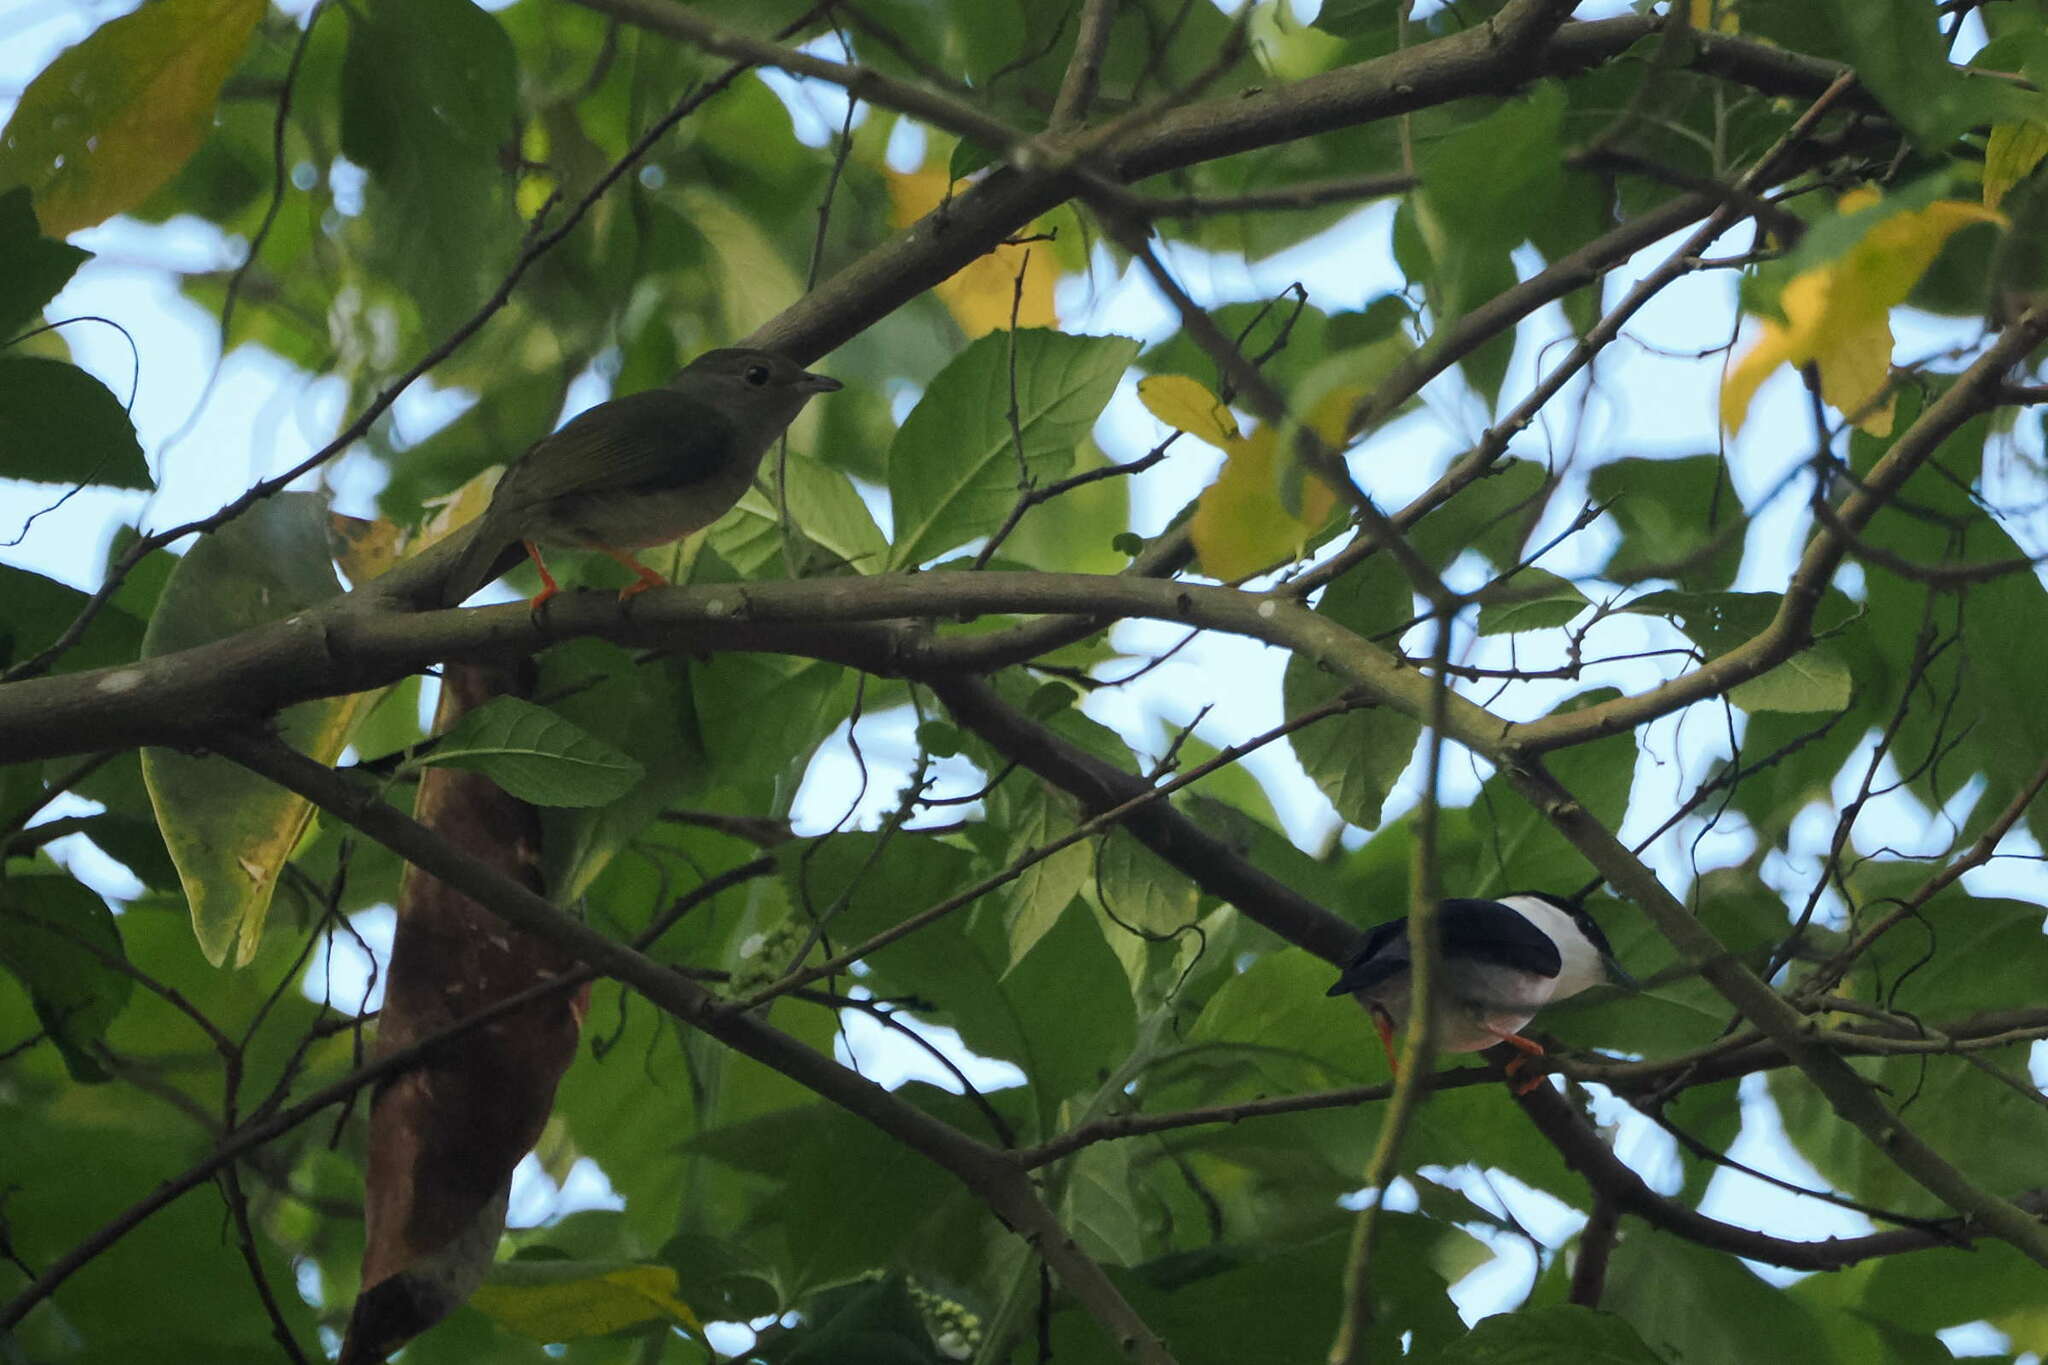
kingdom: Animalia
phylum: Chordata
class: Aves
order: Passeriformes
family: Pipridae
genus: Manacus
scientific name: Manacus manacus
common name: White-bearded manakin
